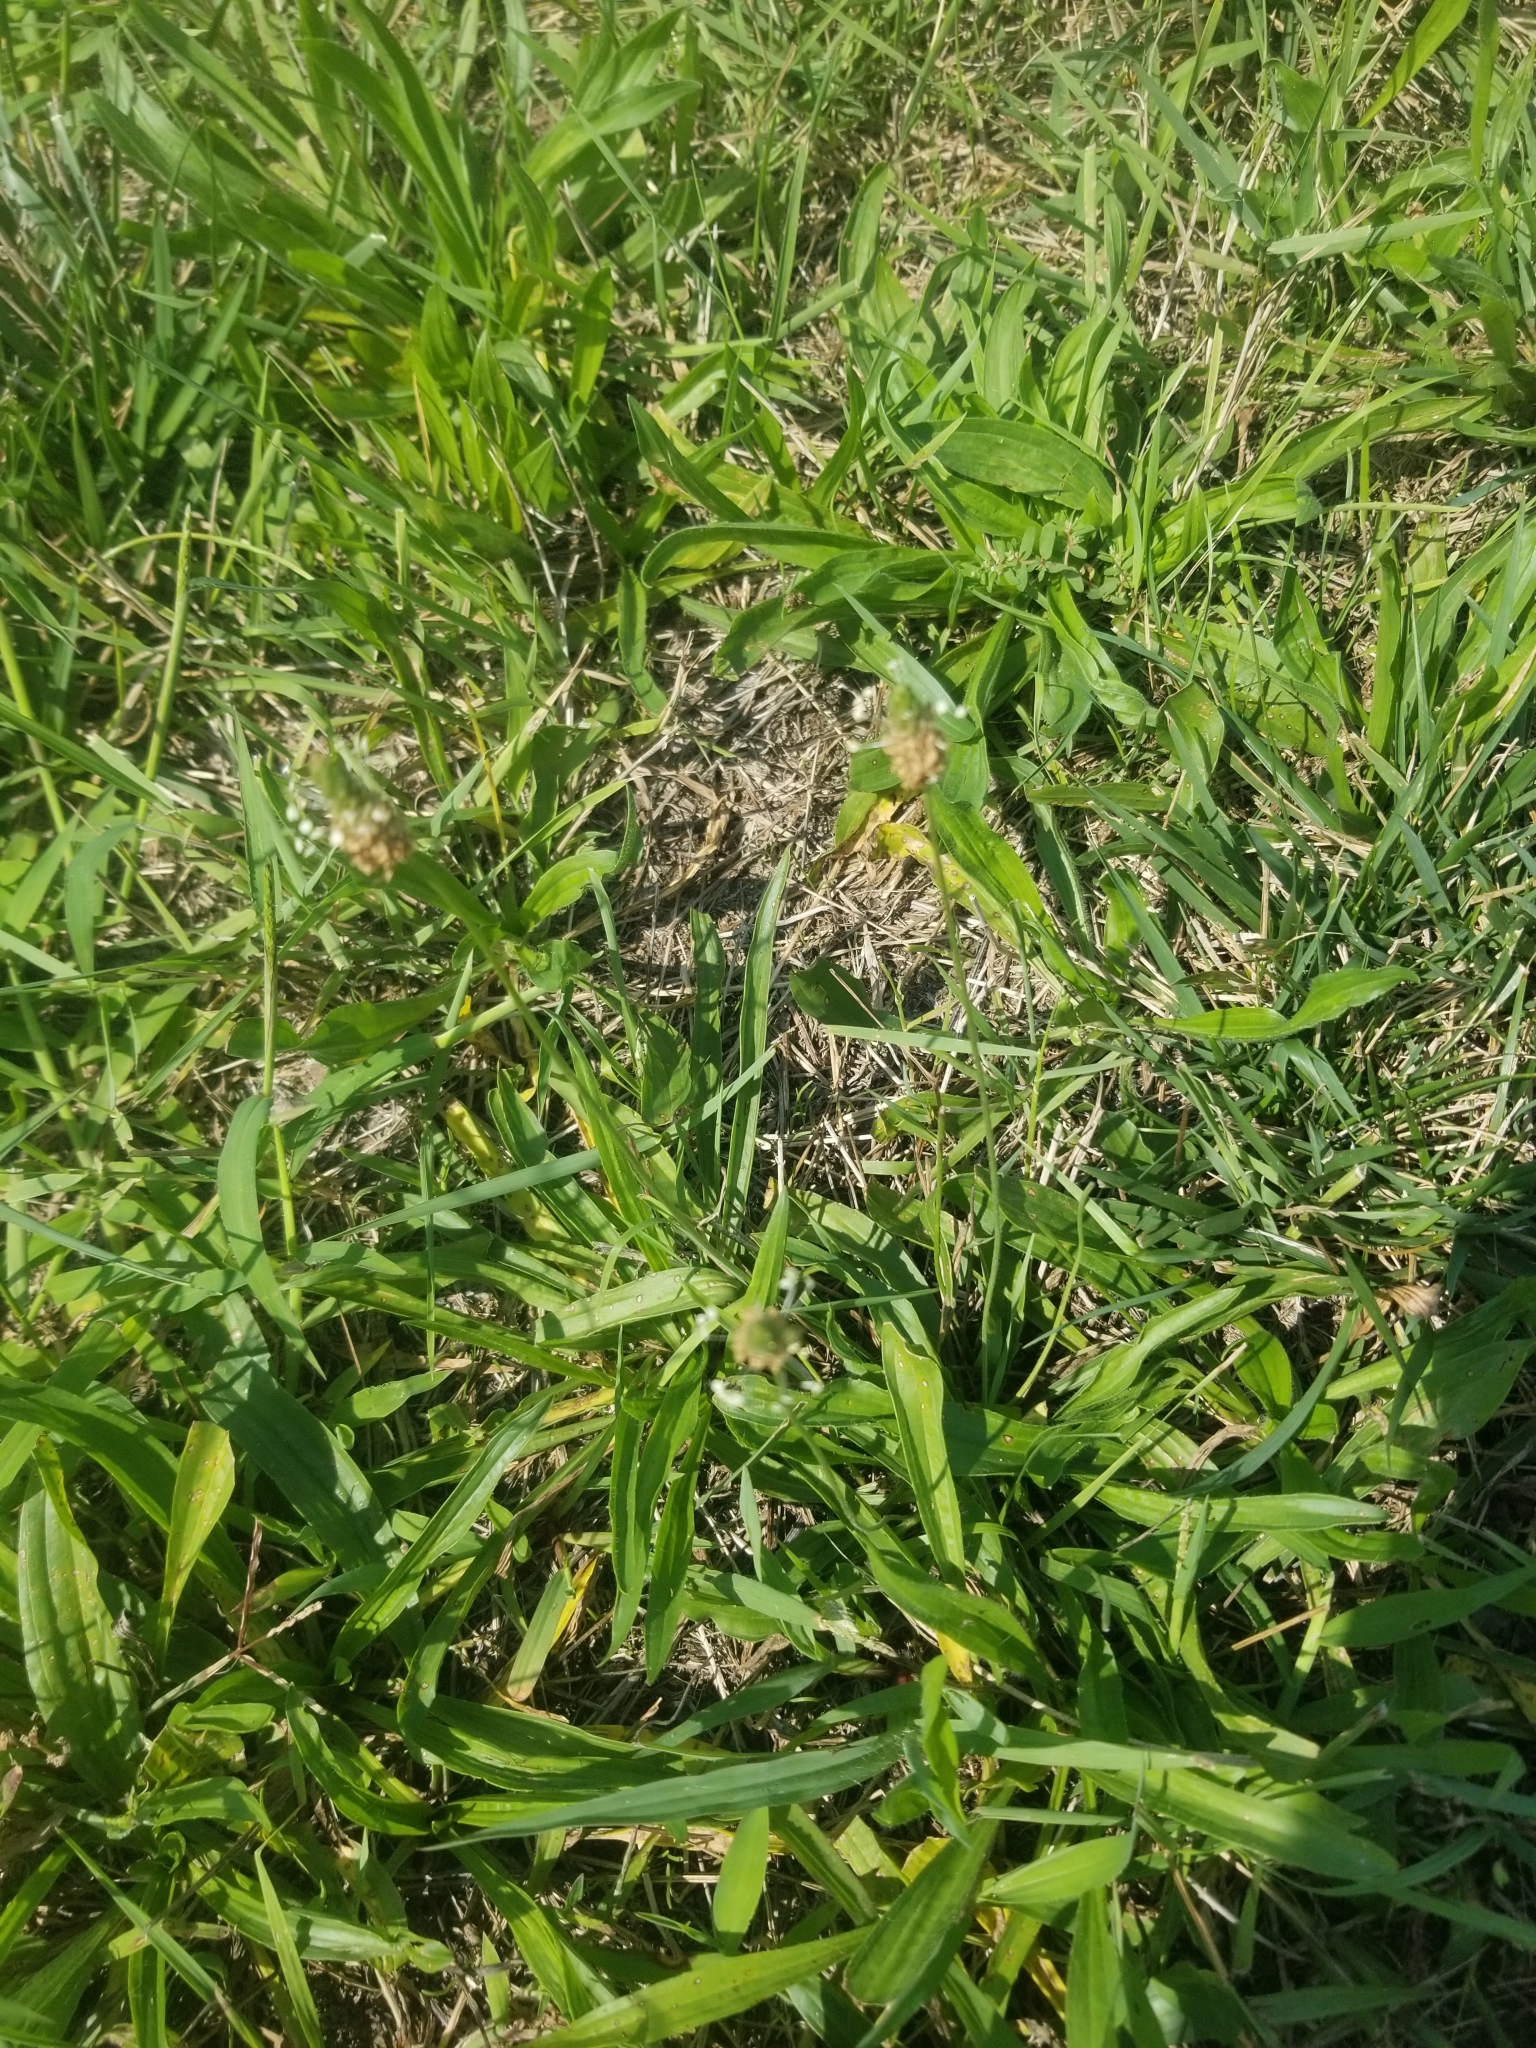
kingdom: Plantae
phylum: Tracheophyta
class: Magnoliopsida
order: Lamiales
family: Plantaginaceae
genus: Plantago
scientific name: Plantago lanceolata
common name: Ribwort plantain
